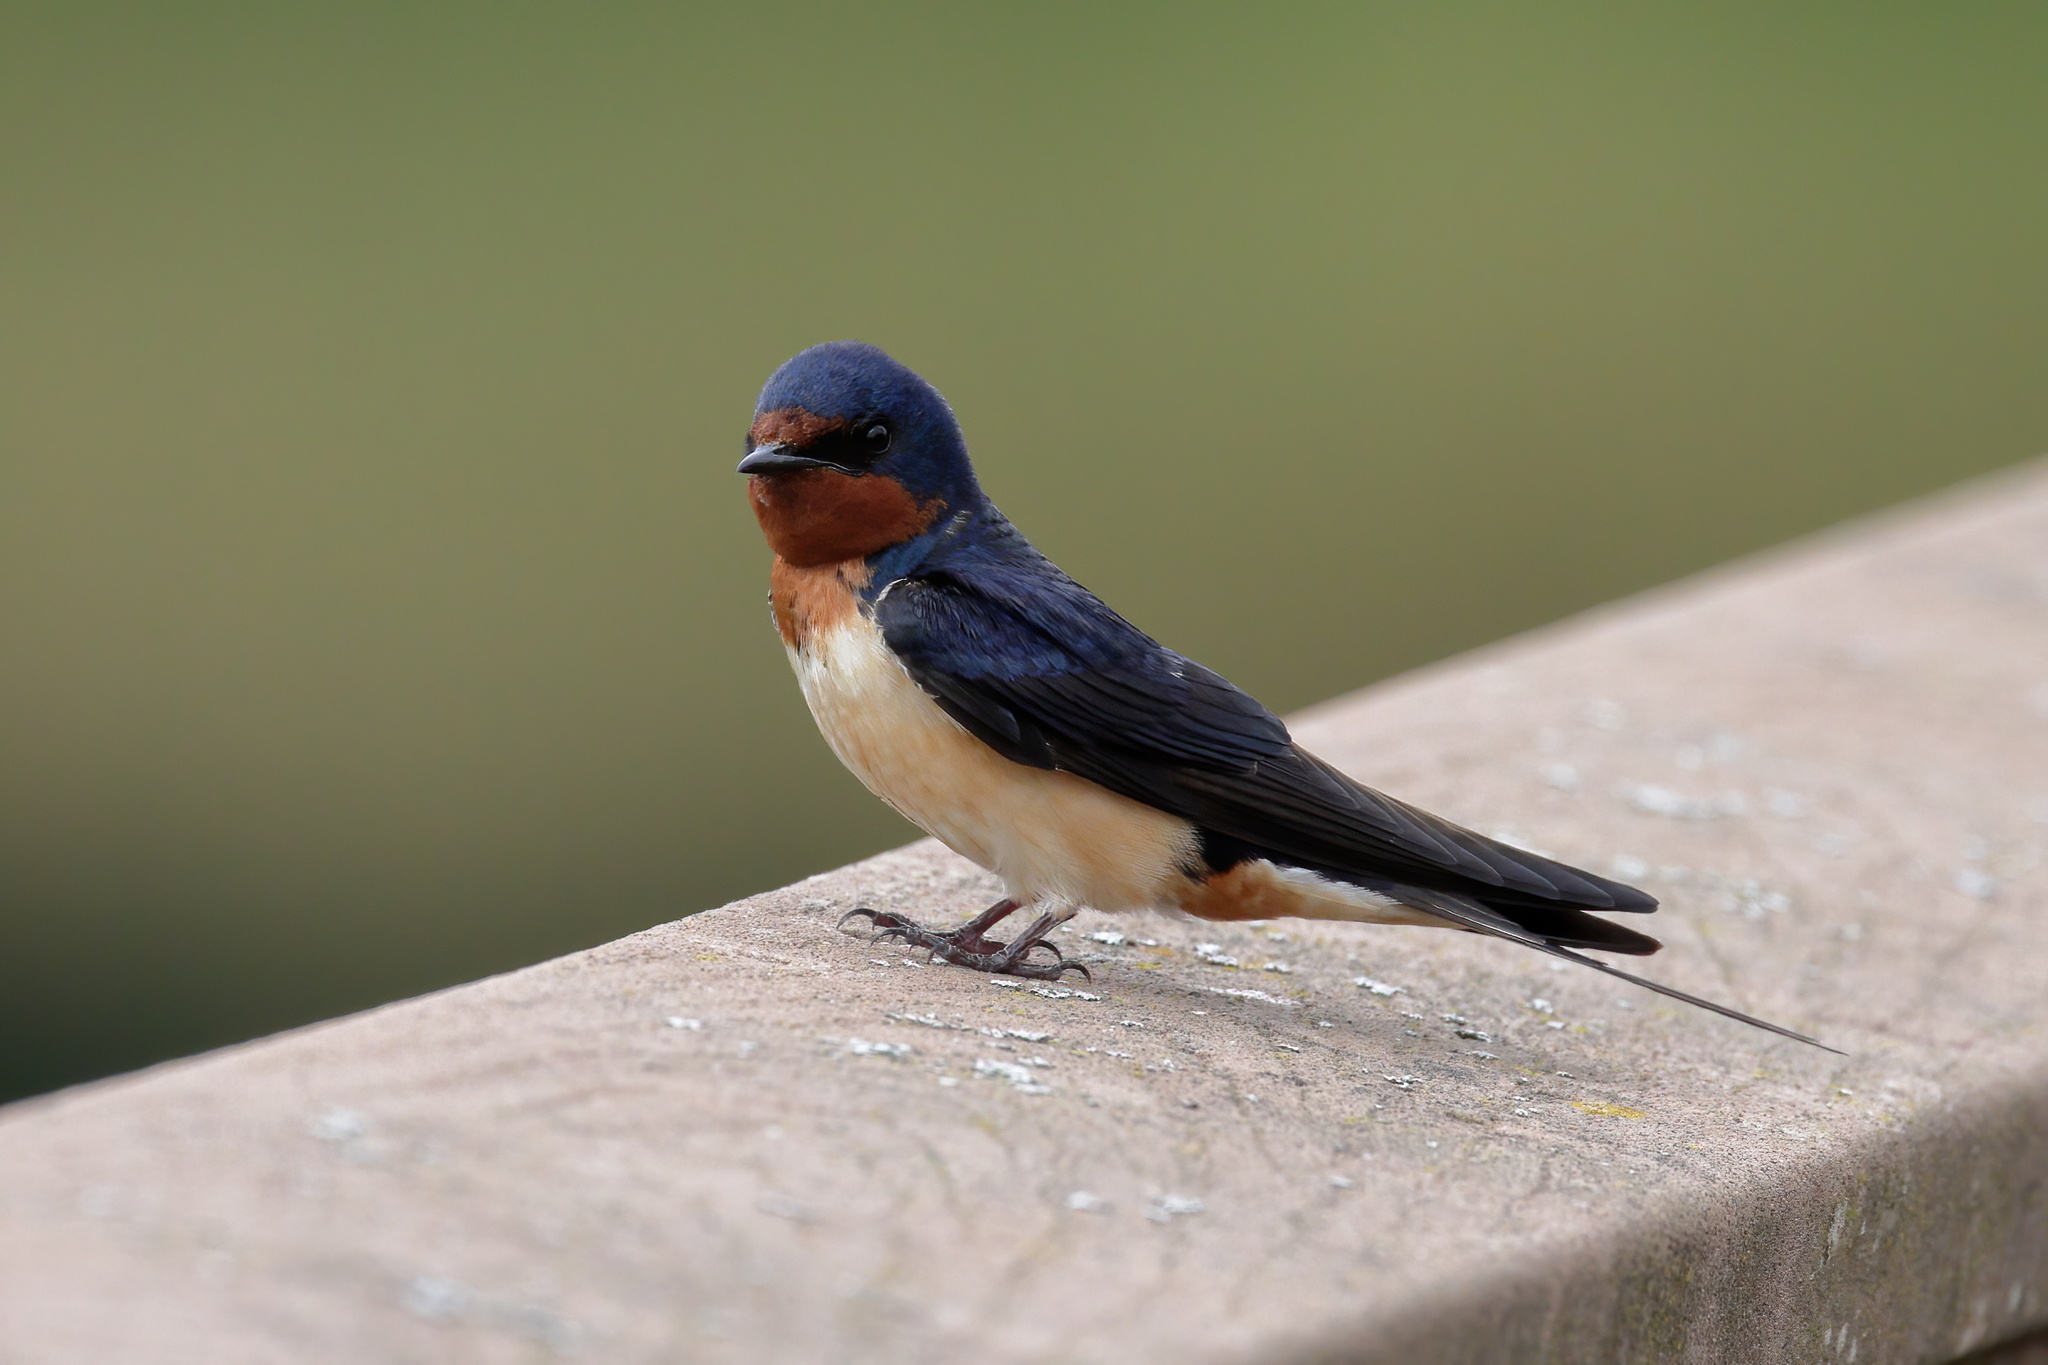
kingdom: Animalia
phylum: Chordata
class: Aves
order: Passeriformes
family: Hirundinidae
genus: Hirundo
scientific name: Hirundo rustica
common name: Barn swallow
